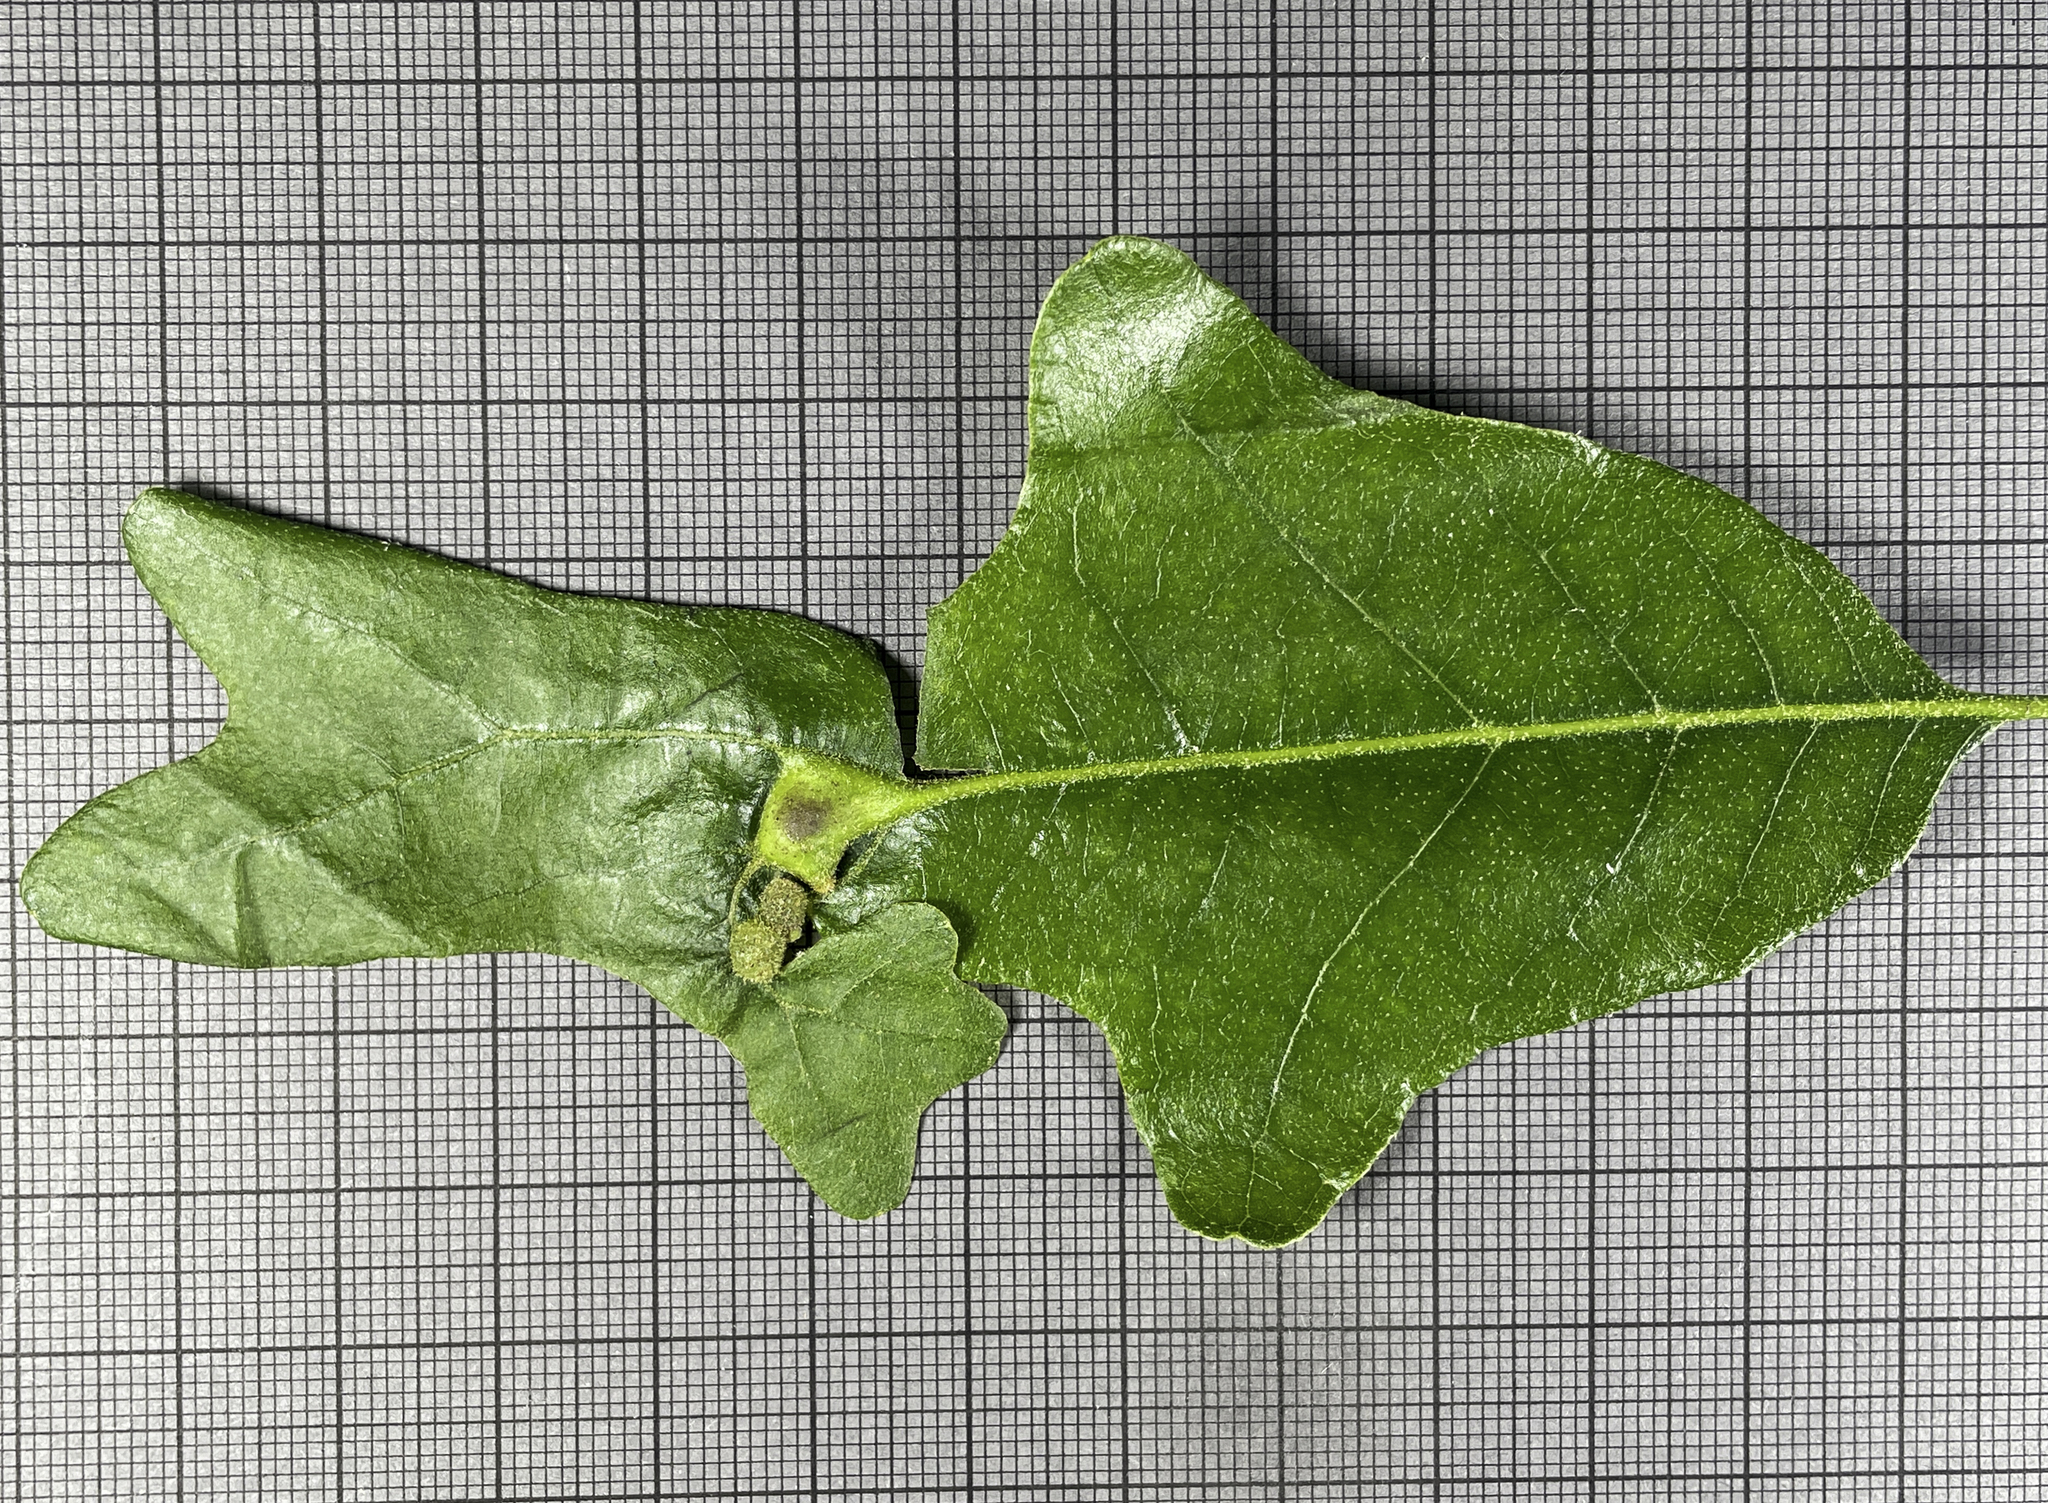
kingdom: Animalia
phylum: Arthropoda
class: Insecta
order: Hymenoptera
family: Cynipidae
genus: Neuroterus
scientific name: Neuroterus quercusirregularis
